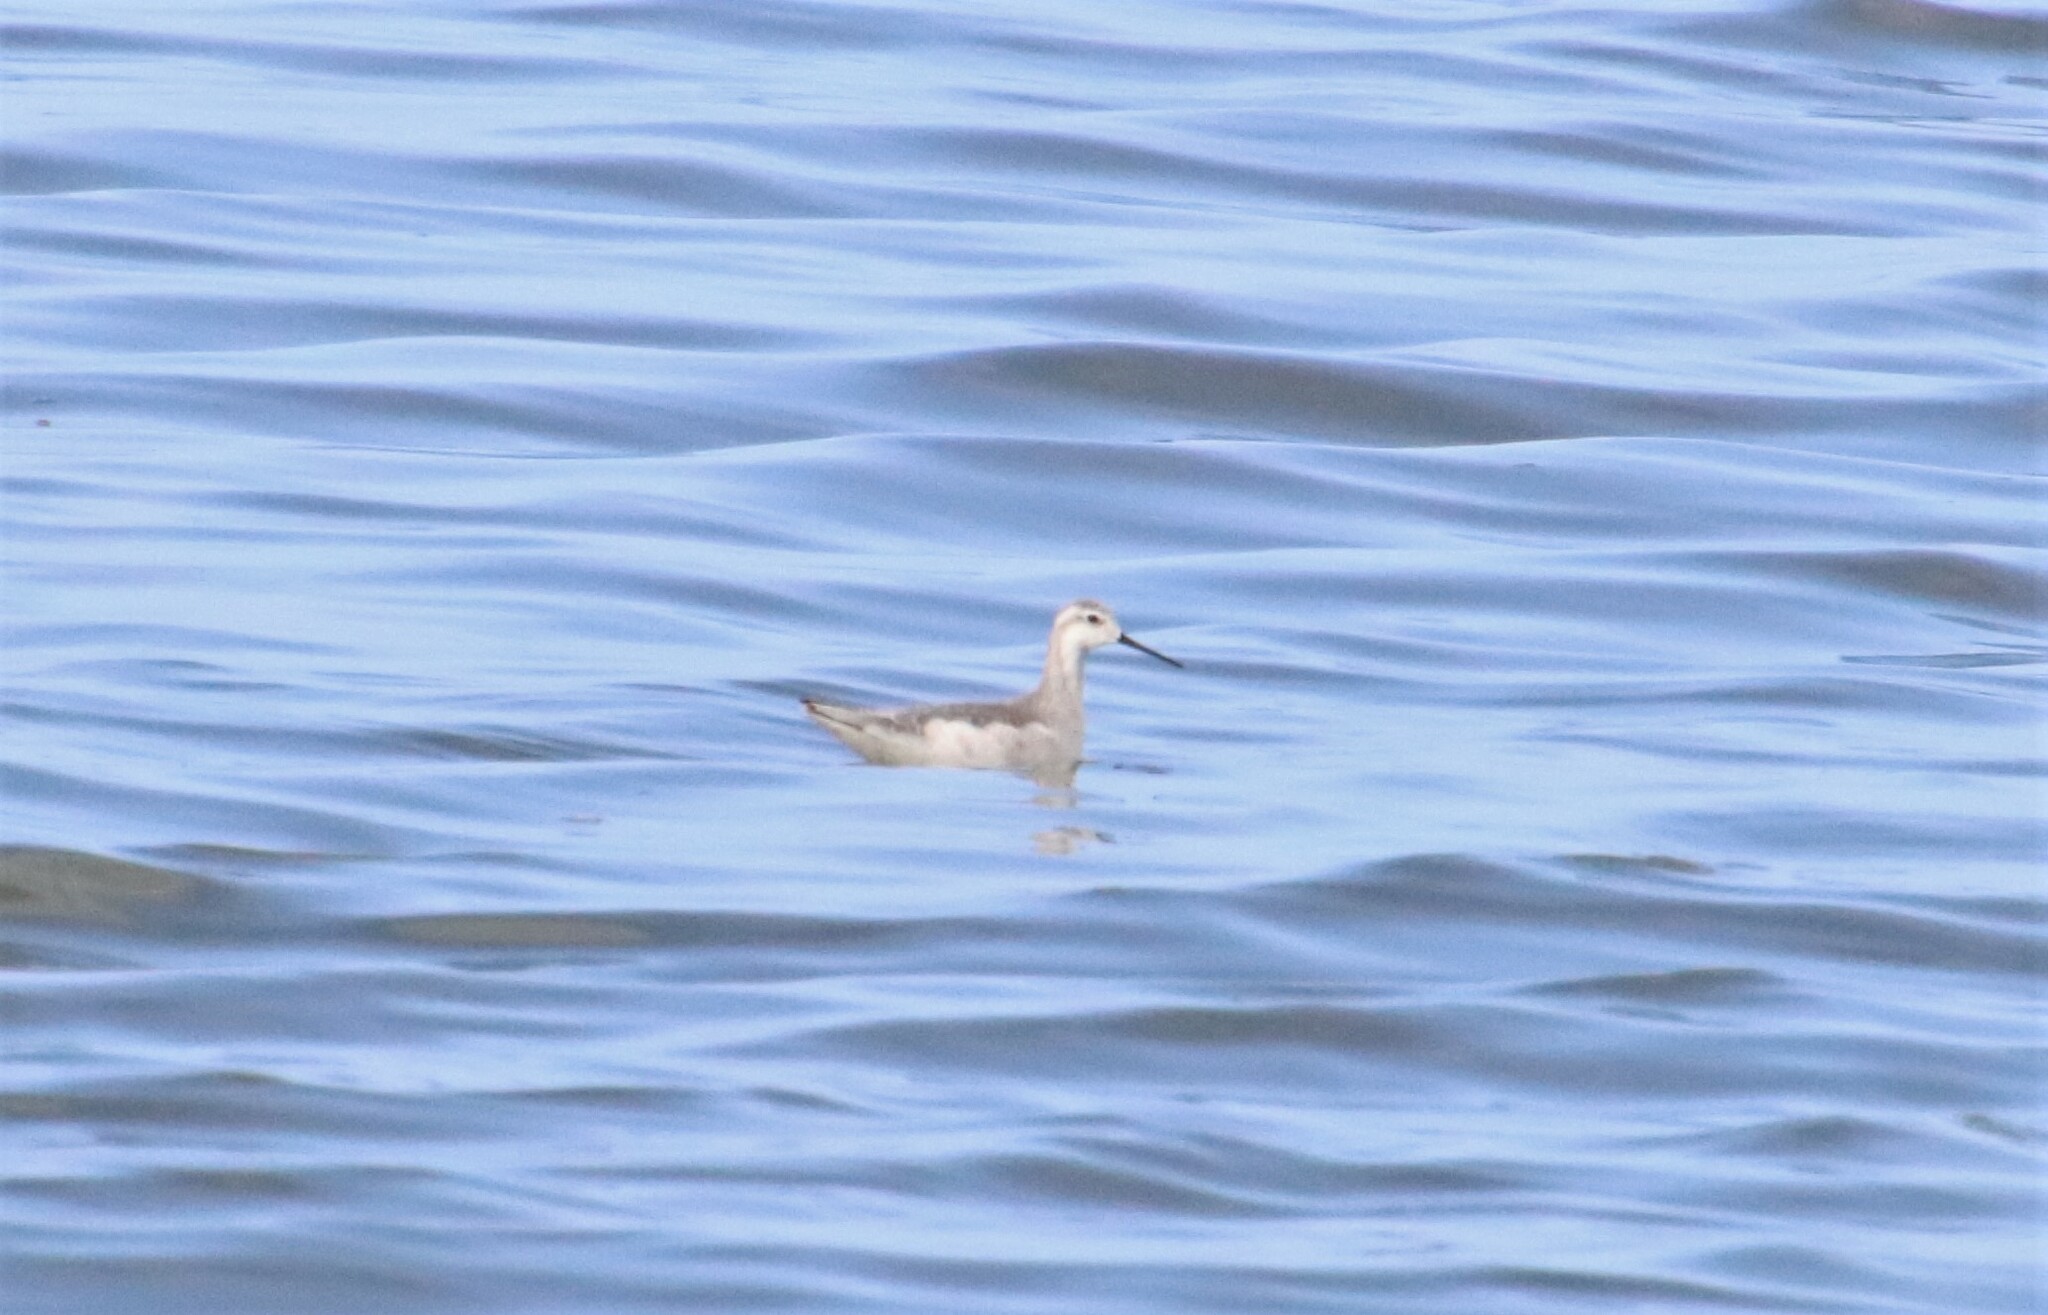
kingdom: Animalia
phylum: Chordata
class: Aves
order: Charadriiformes
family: Scolopacidae
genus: Phalaropus
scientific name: Phalaropus tricolor
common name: Wilson's phalarope
